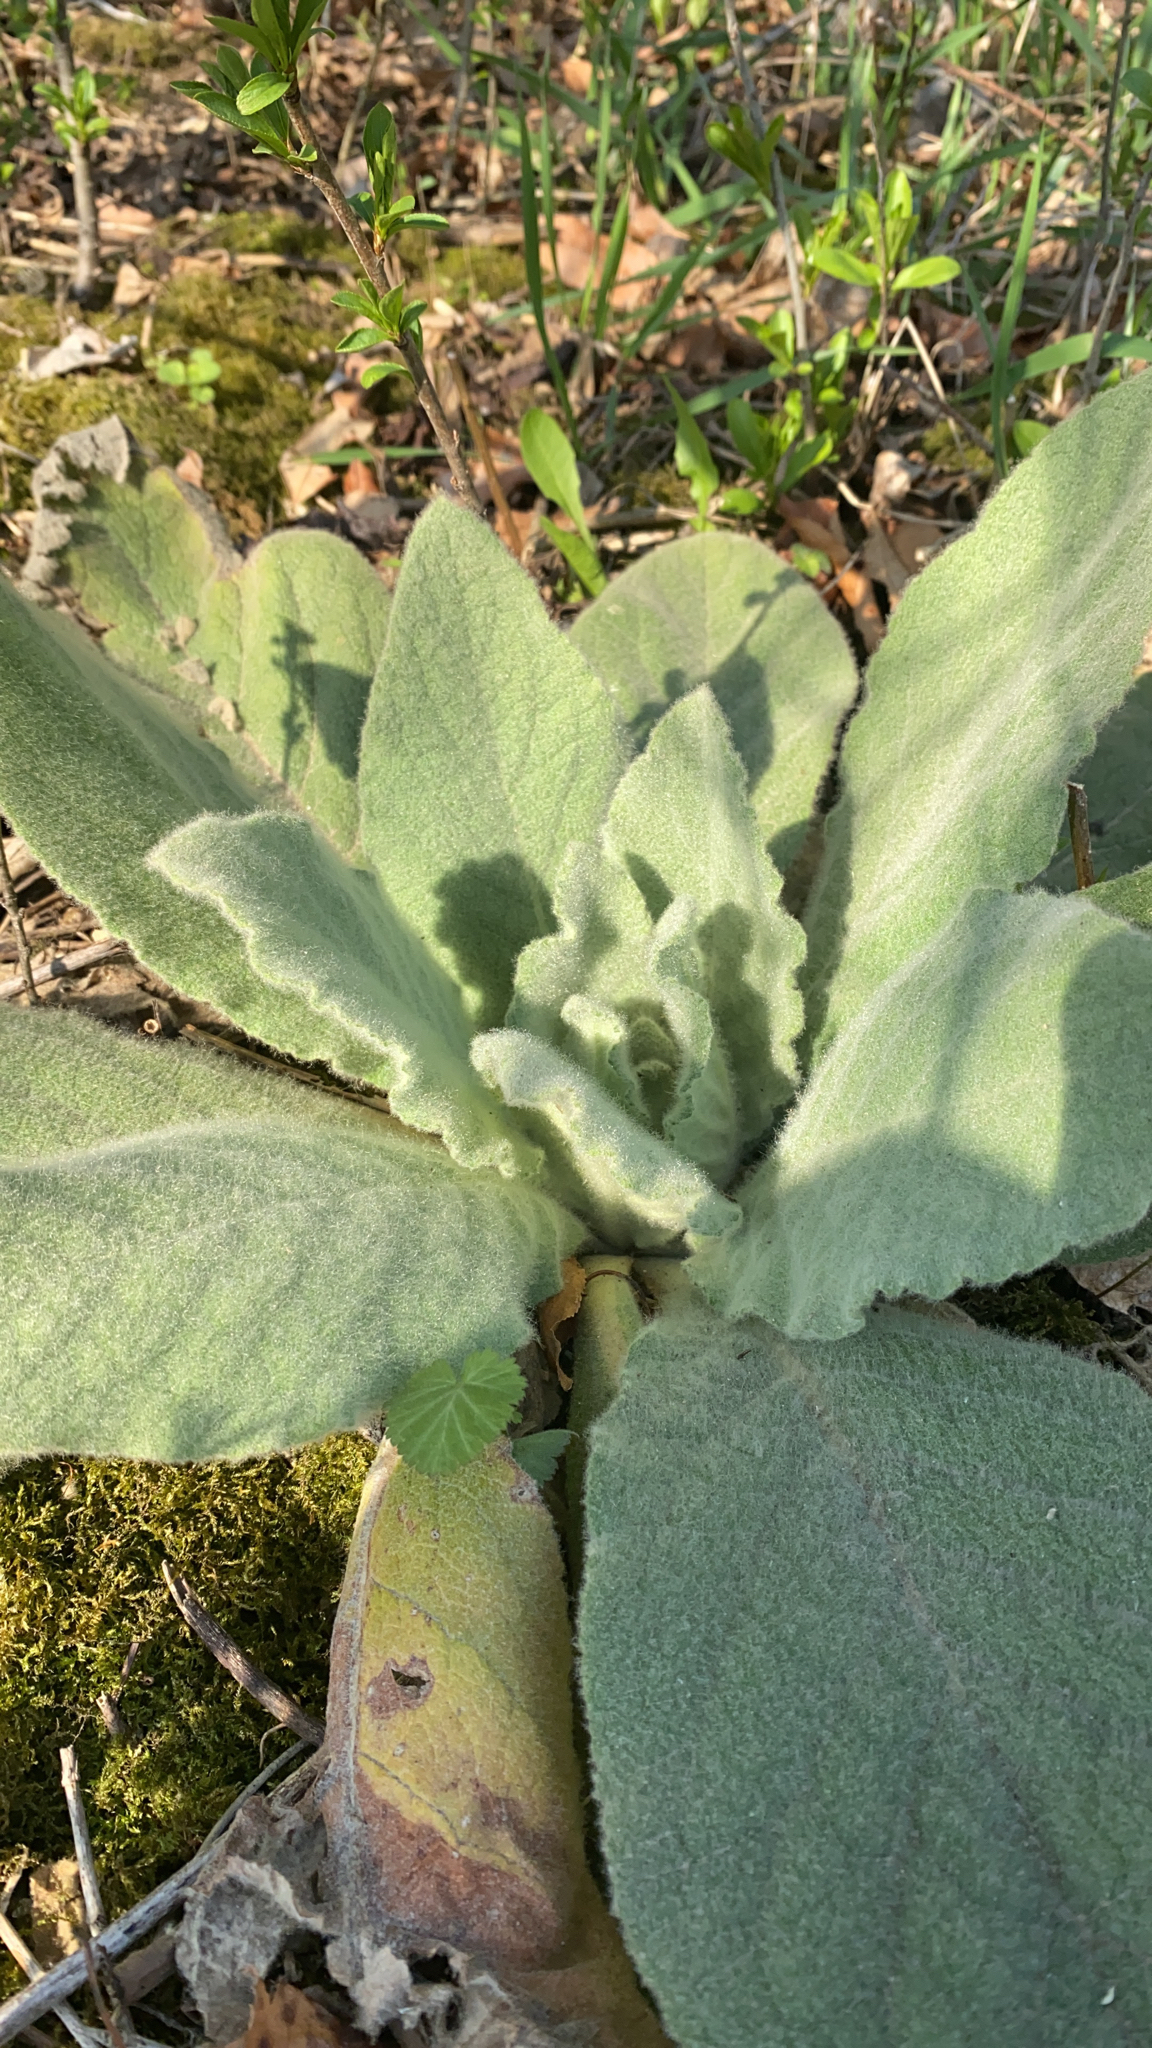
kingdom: Plantae
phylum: Tracheophyta
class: Magnoliopsida
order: Lamiales
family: Scrophulariaceae
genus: Verbascum
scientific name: Verbascum thapsus
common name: Common mullein
